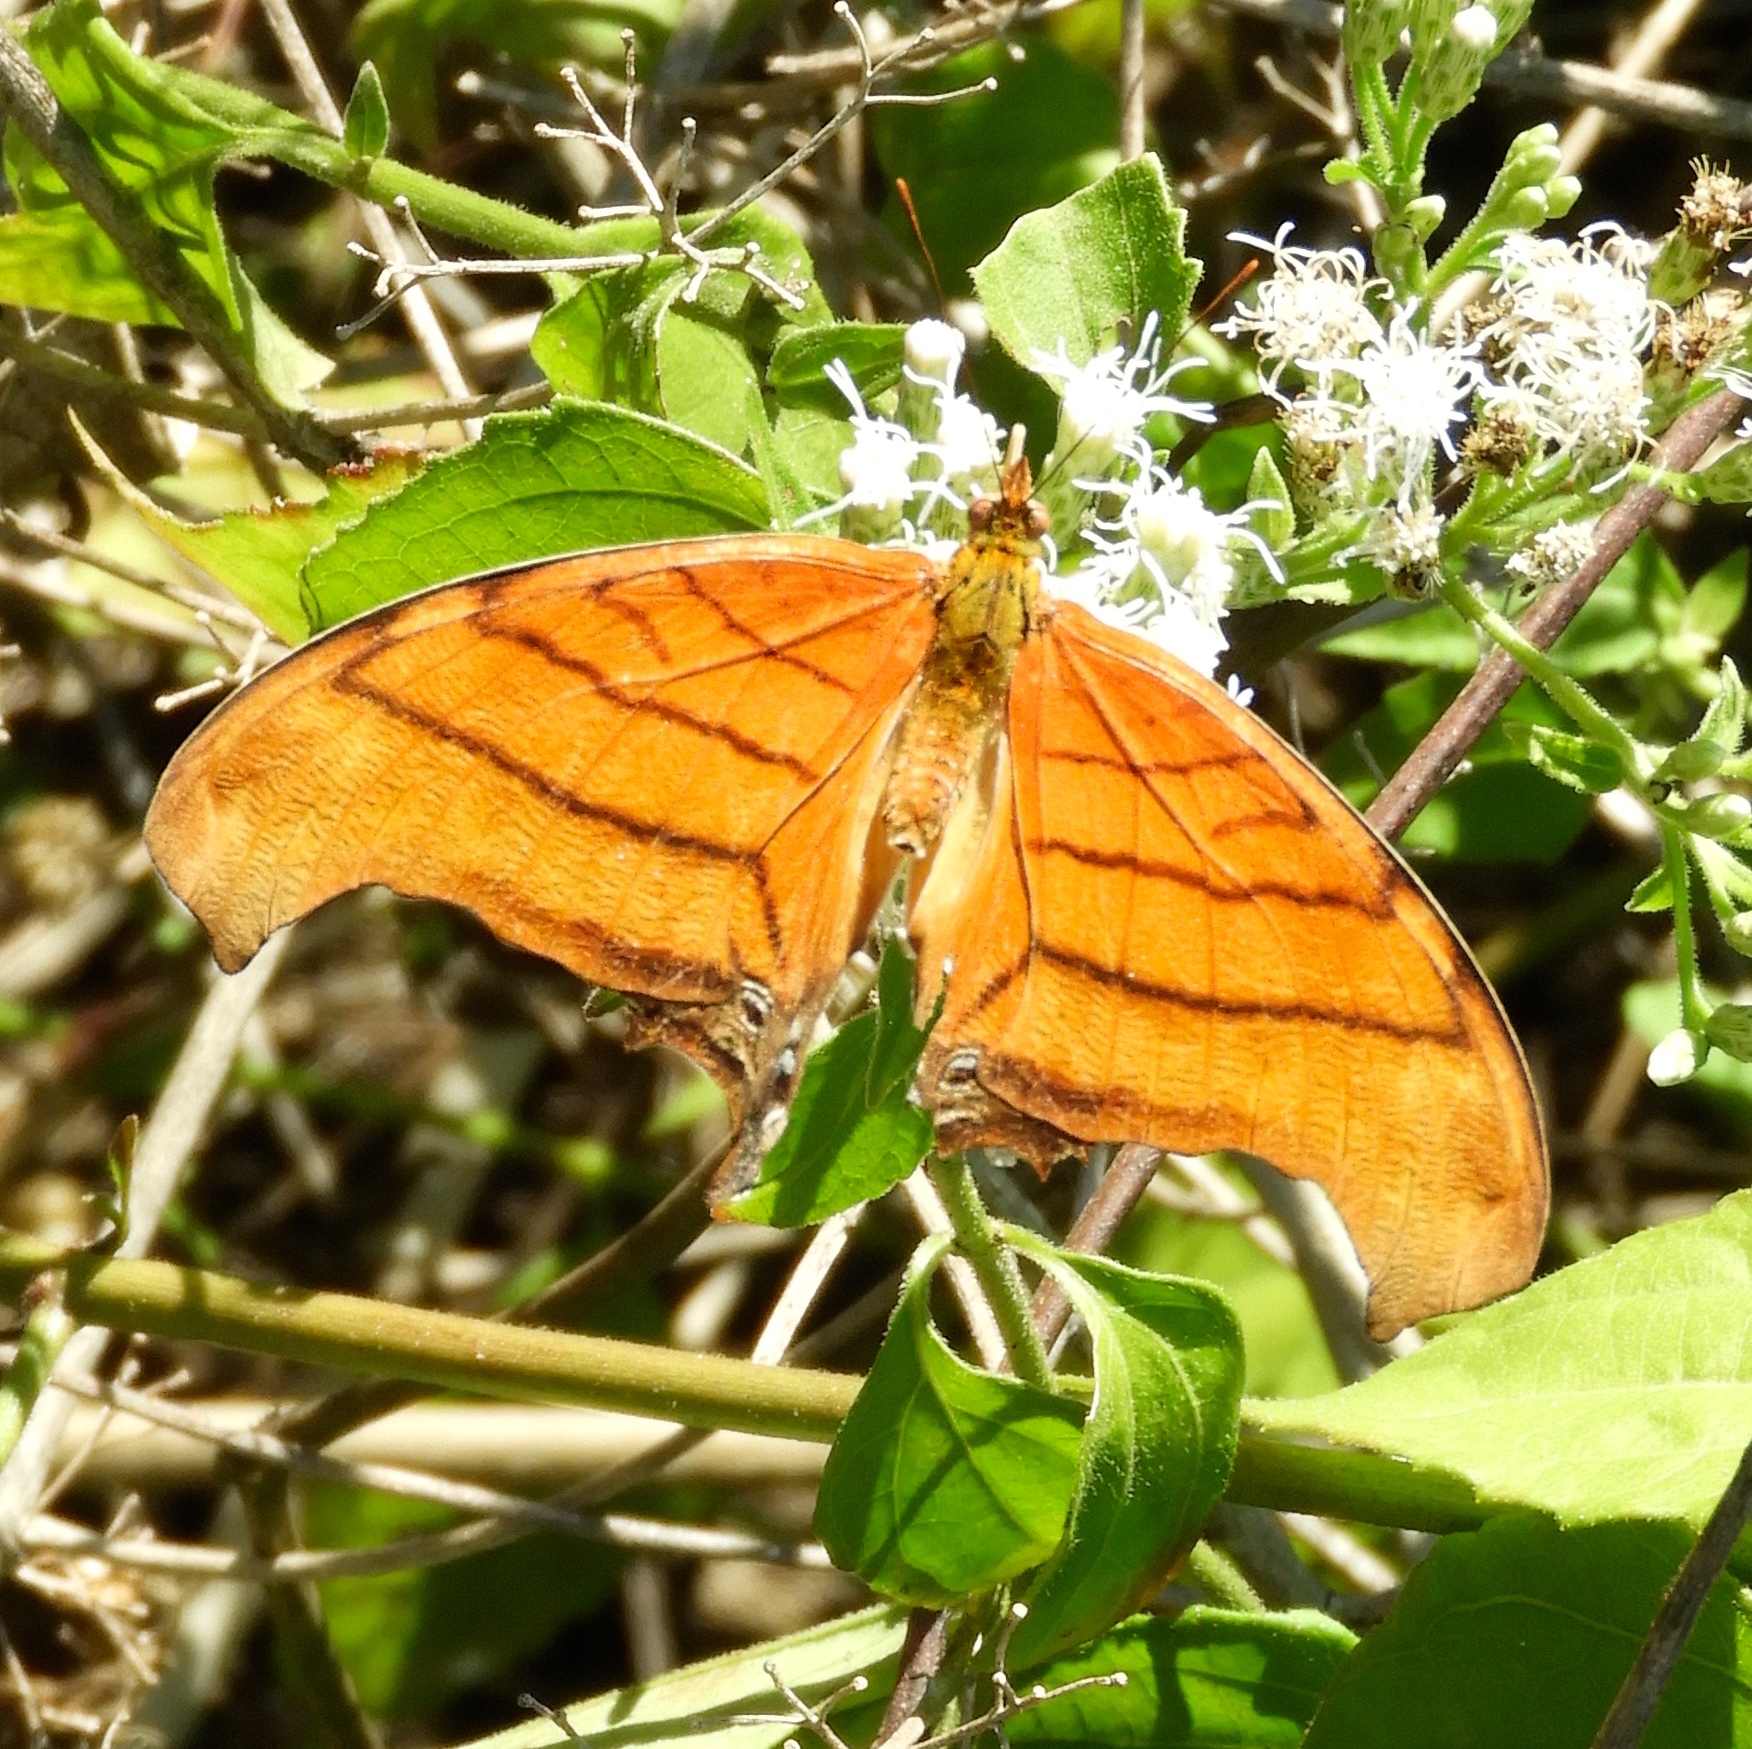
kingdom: Animalia
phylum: Arthropoda
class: Insecta
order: Lepidoptera
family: Nymphalidae
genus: Marpesia
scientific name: Marpesia petreus
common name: Red dagger wing
